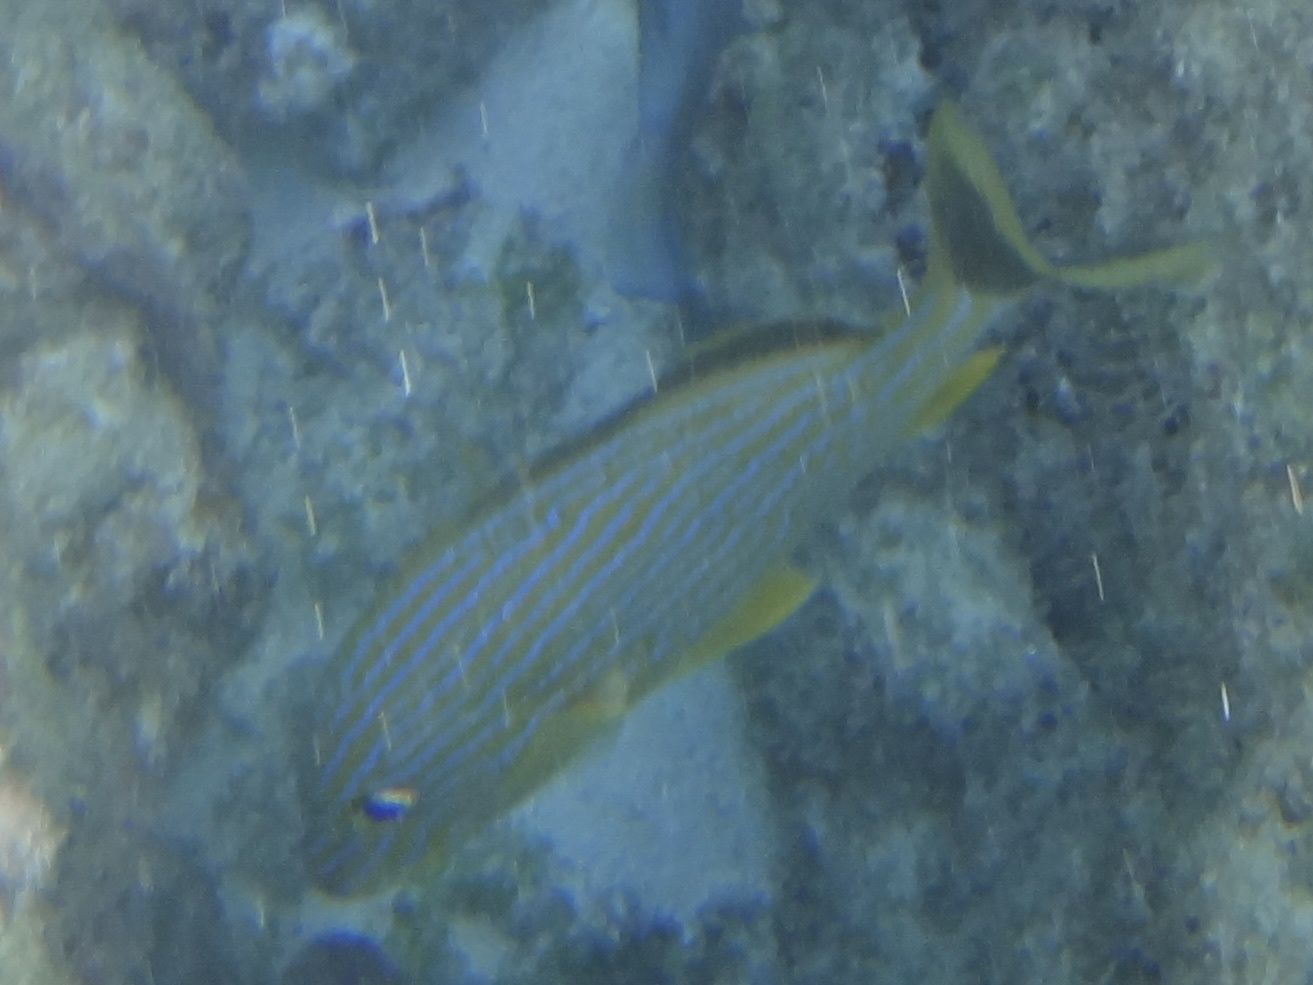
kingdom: Animalia
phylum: Chordata
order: Perciformes
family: Haemulidae
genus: Haemulon
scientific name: Haemulon sciurus
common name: Bluestriped grunt
